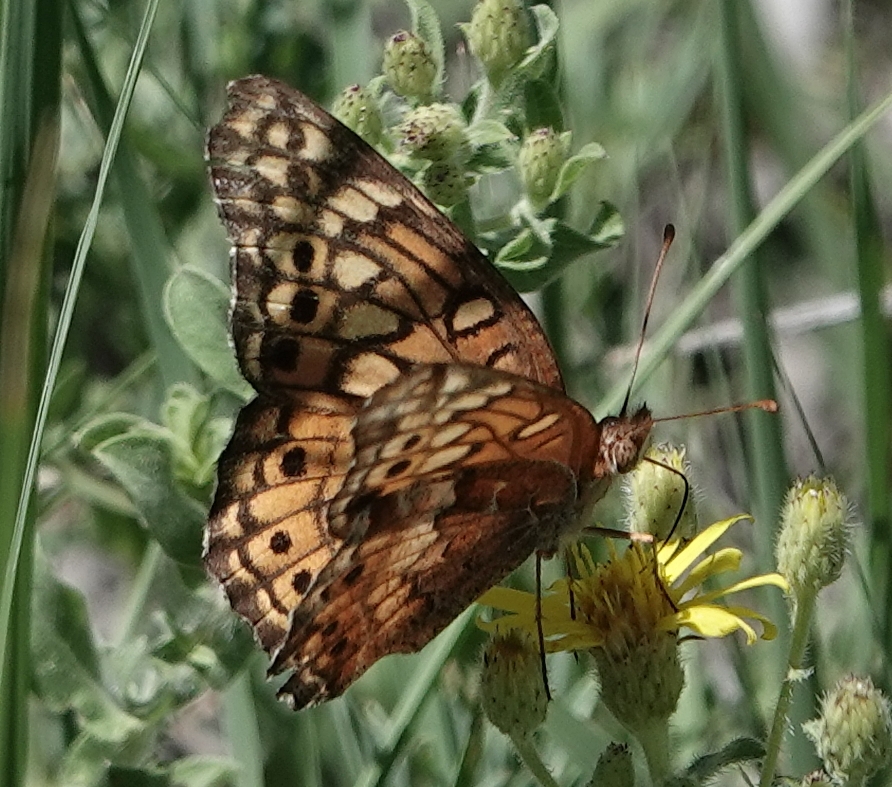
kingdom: Animalia
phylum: Arthropoda
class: Insecta
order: Lepidoptera
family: Nymphalidae
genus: Euptoieta
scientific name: Euptoieta claudia
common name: Variegated fritillary
